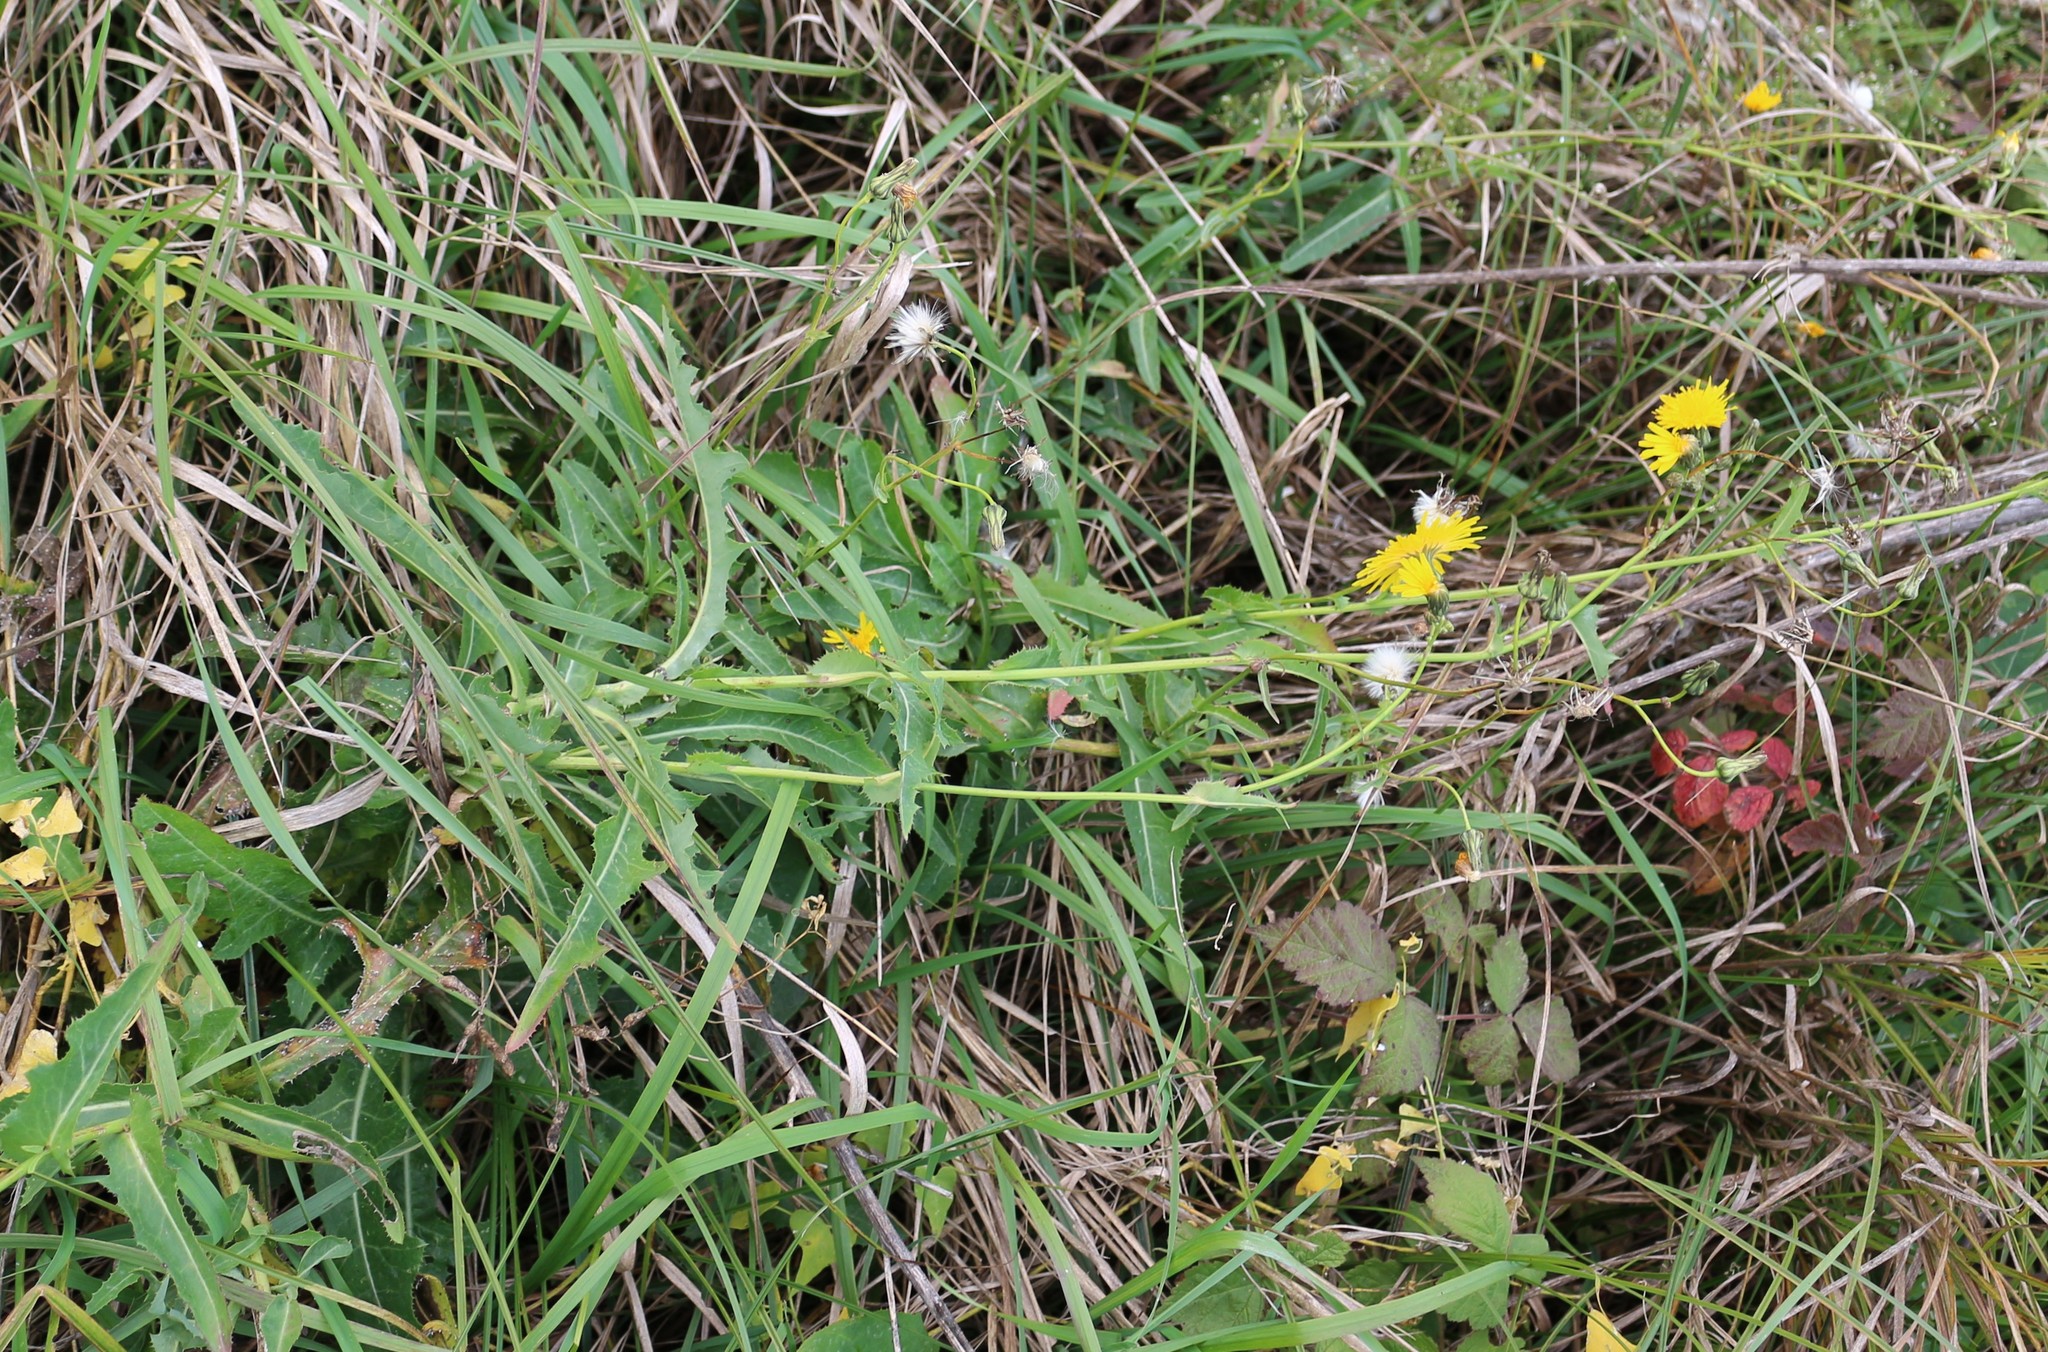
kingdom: Plantae
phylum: Tracheophyta
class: Magnoliopsida
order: Asterales
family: Asteraceae
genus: Sonchus
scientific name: Sonchus arvensis
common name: Perennial sow-thistle
